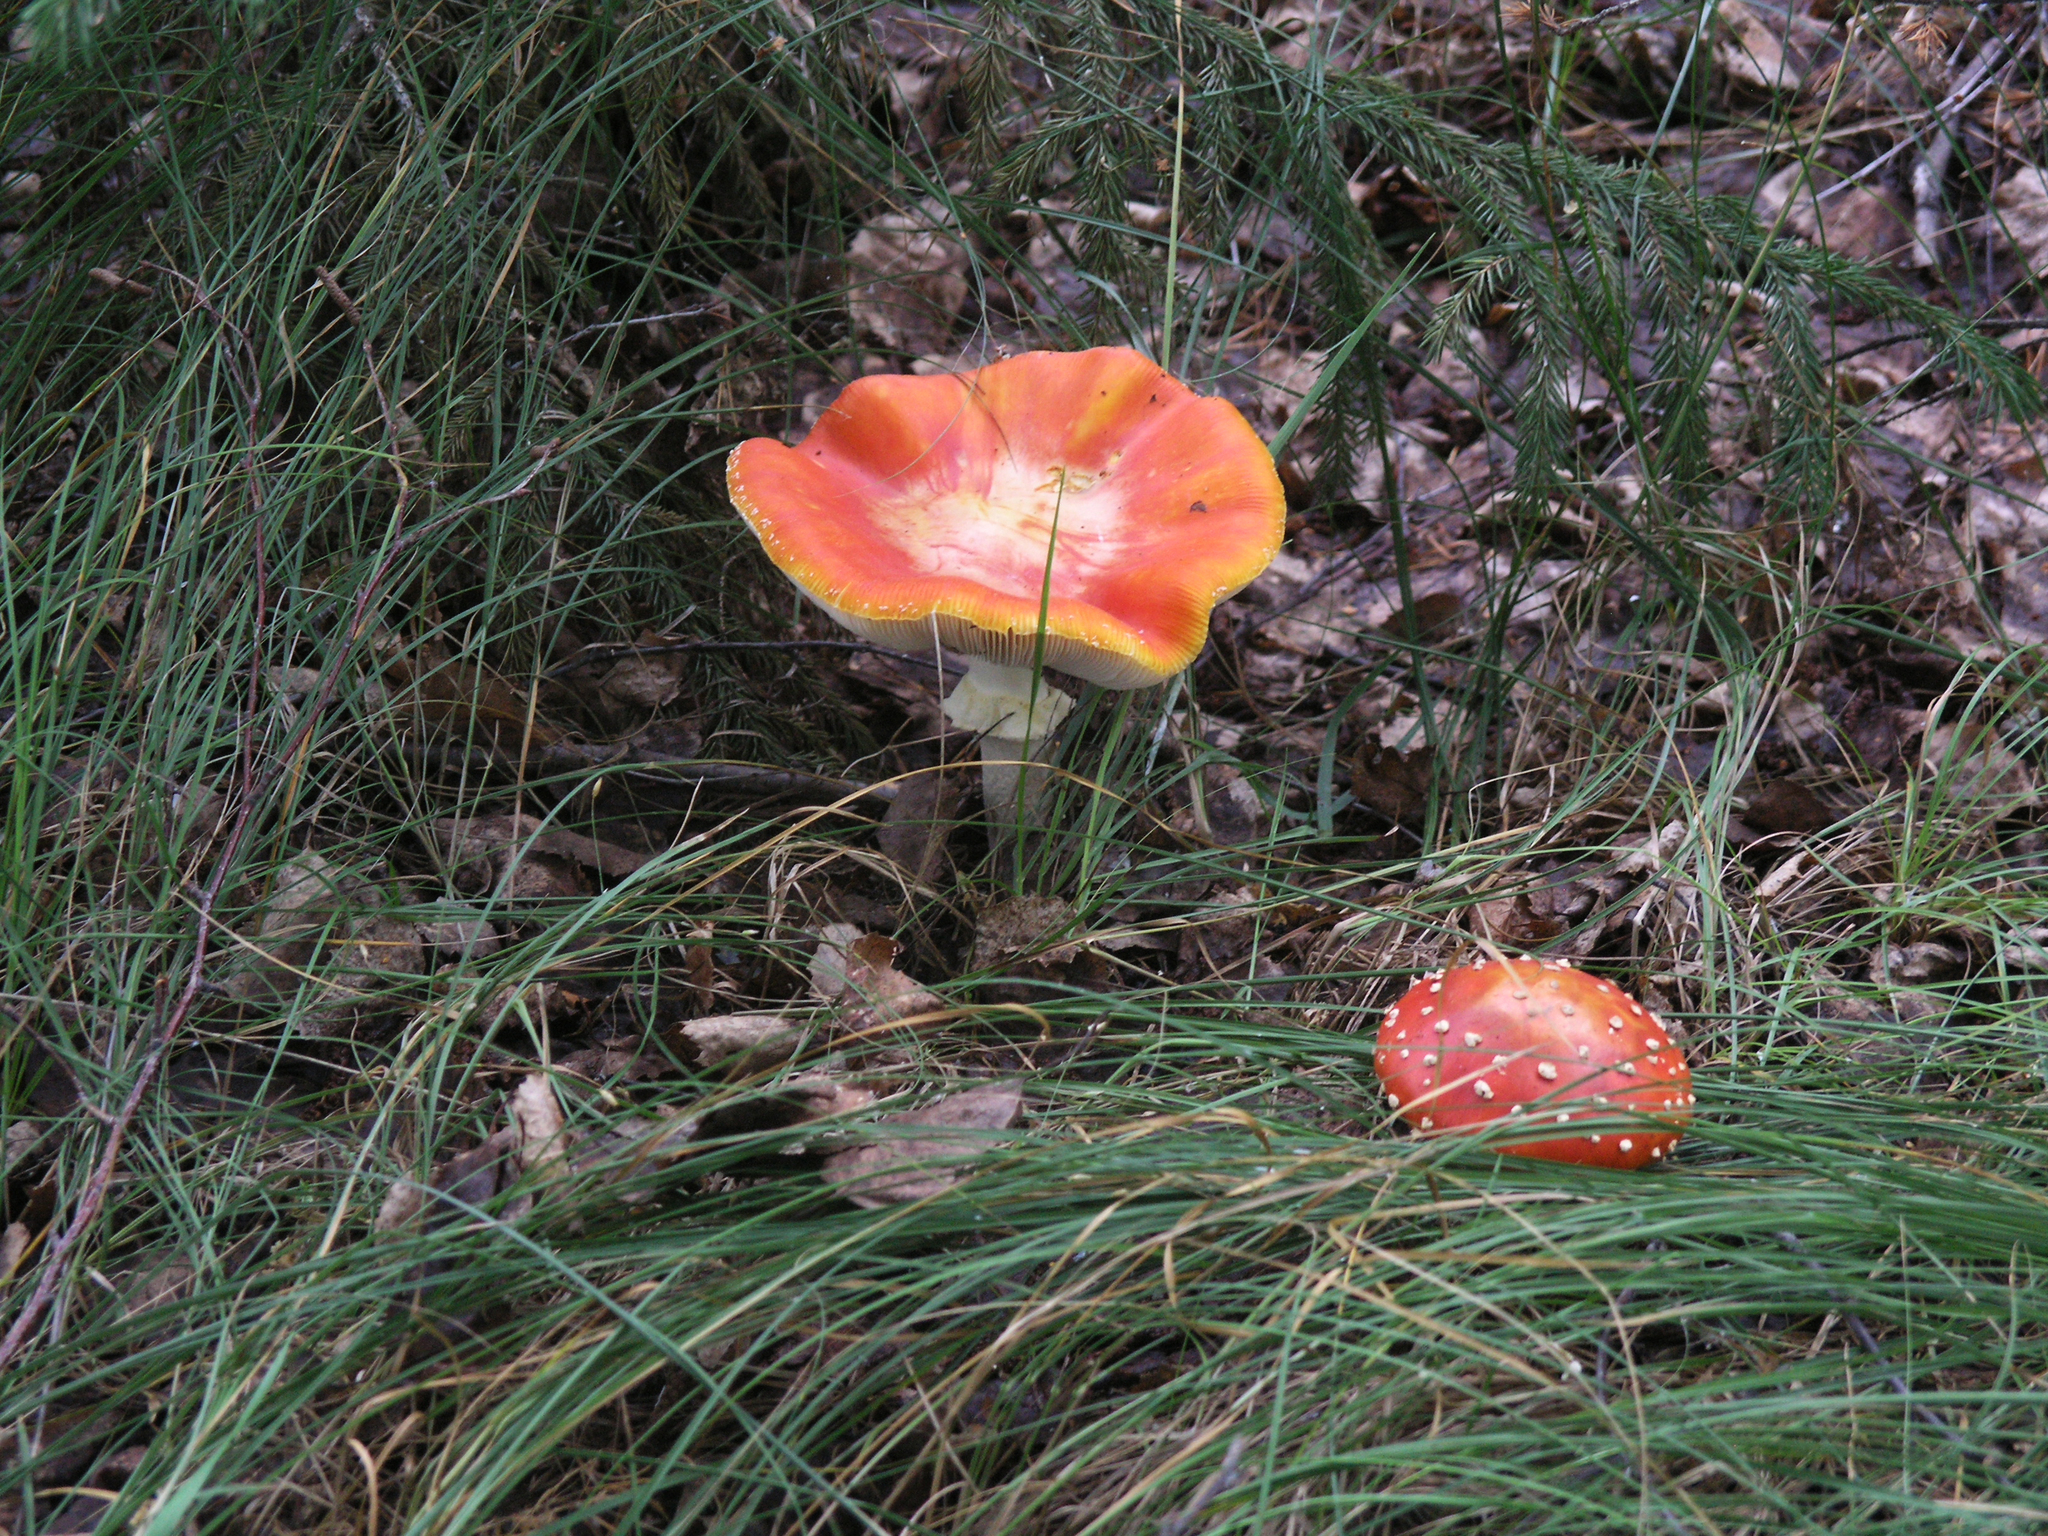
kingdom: Fungi
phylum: Basidiomycota
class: Agaricomycetes
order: Agaricales
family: Amanitaceae
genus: Amanita
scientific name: Amanita muscaria
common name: Fly agaric
